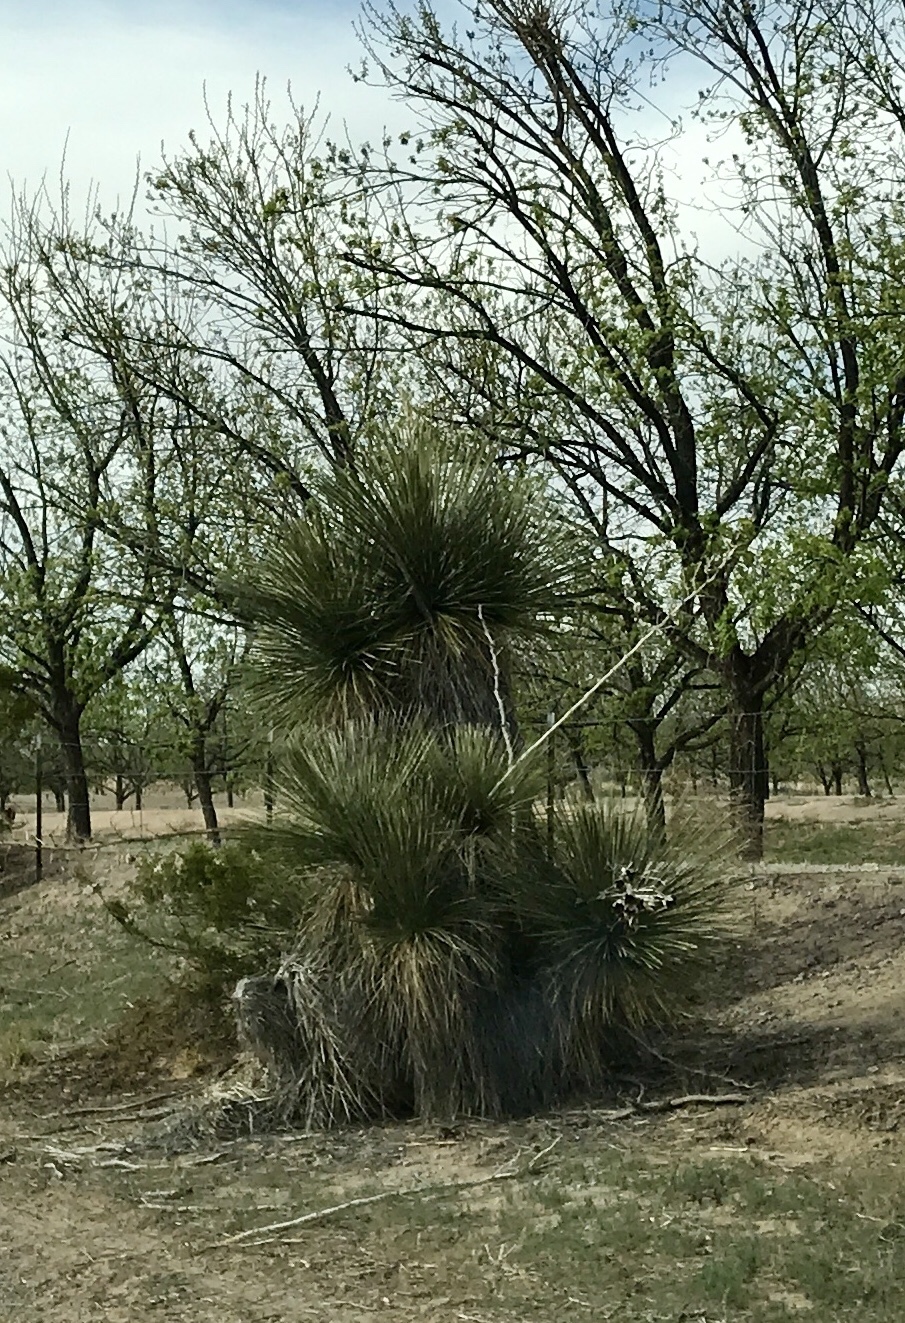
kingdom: Plantae
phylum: Tracheophyta
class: Liliopsida
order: Asparagales
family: Asparagaceae
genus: Yucca
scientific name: Yucca elata
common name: Palmella
